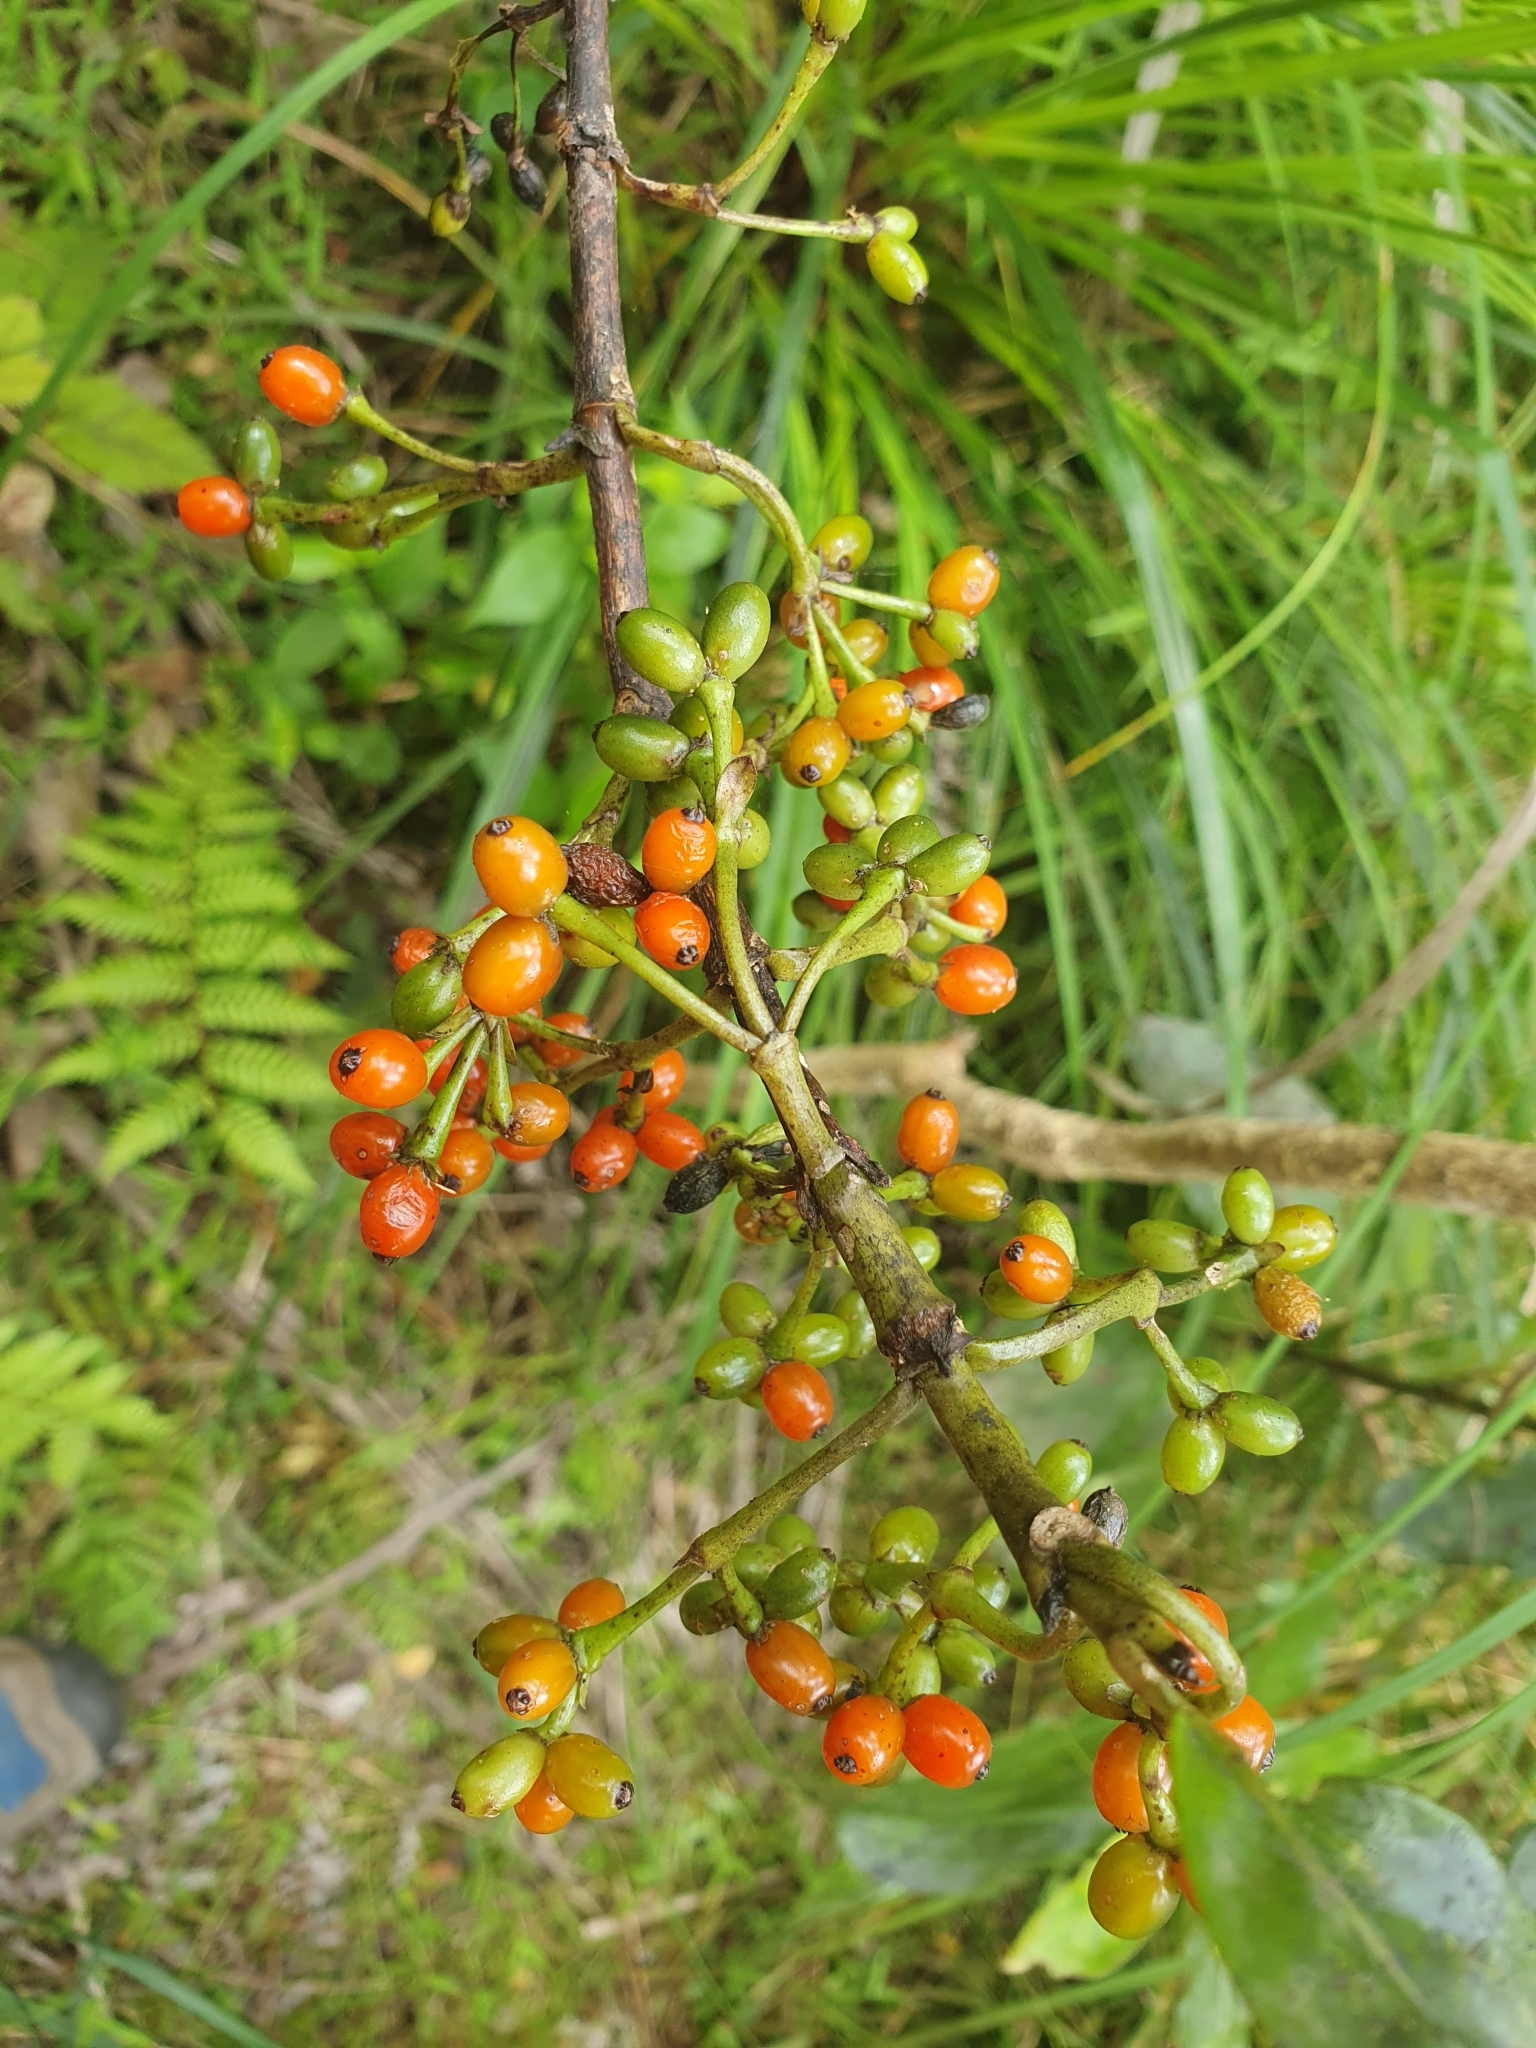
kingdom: Plantae
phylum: Tracheophyta
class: Magnoliopsida
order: Gentianales
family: Rubiaceae
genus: Coprosma
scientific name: Coprosma autumnalis
